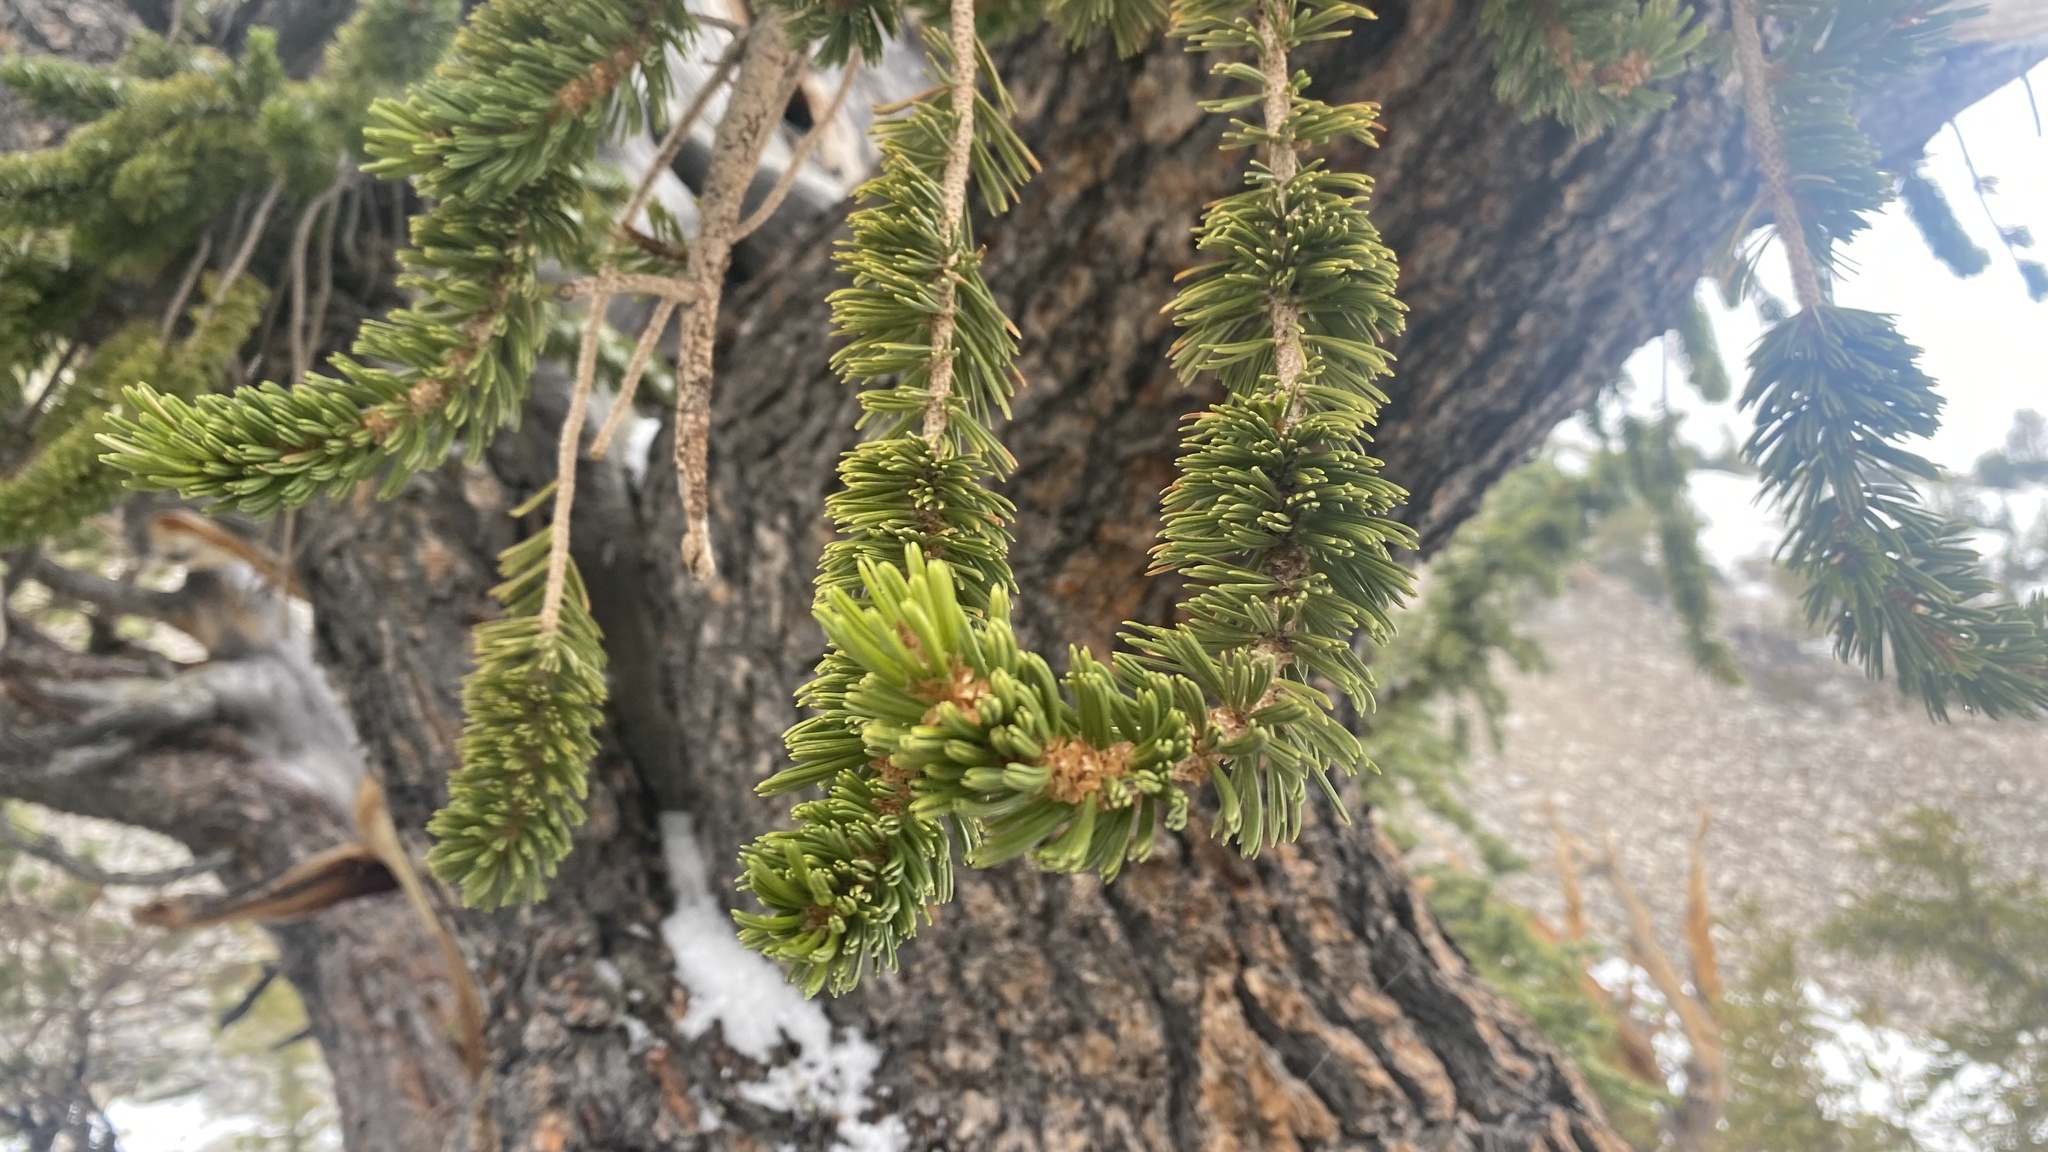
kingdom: Plantae
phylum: Tracheophyta
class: Pinopsida
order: Pinales
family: Pinaceae
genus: Pinus
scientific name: Pinus longaeva
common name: Intermountain bristlecone pine
